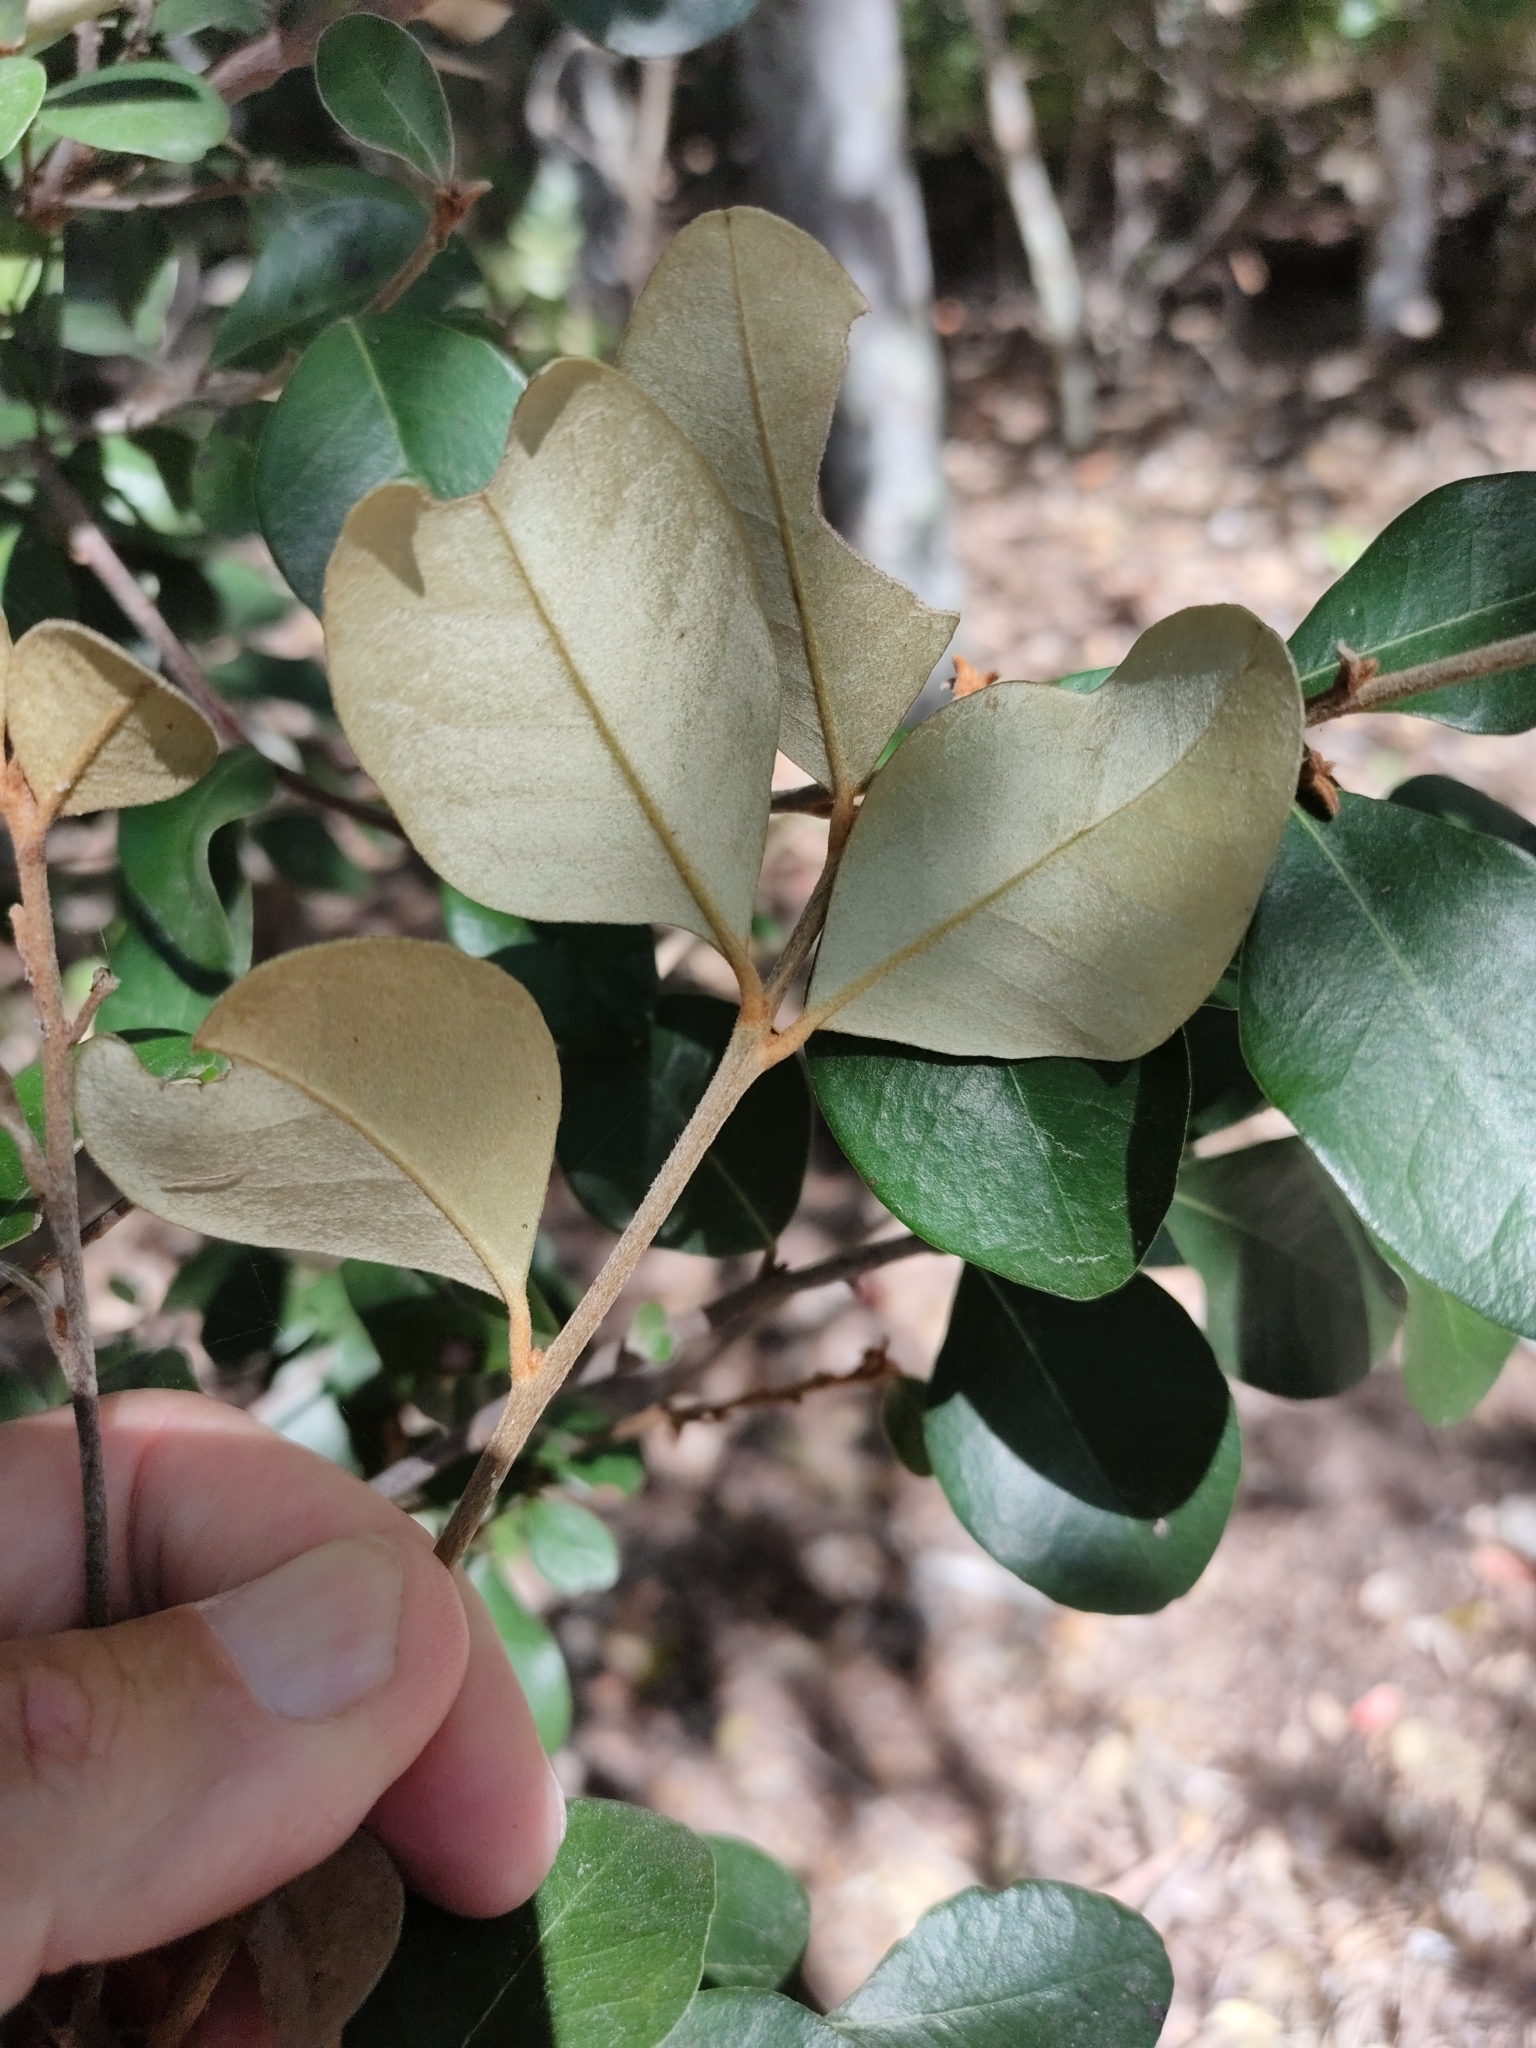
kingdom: Plantae
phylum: Tracheophyta
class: Magnoliopsida
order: Ericales
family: Sapotaceae
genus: Sersalisia
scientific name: Sersalisia sericea
